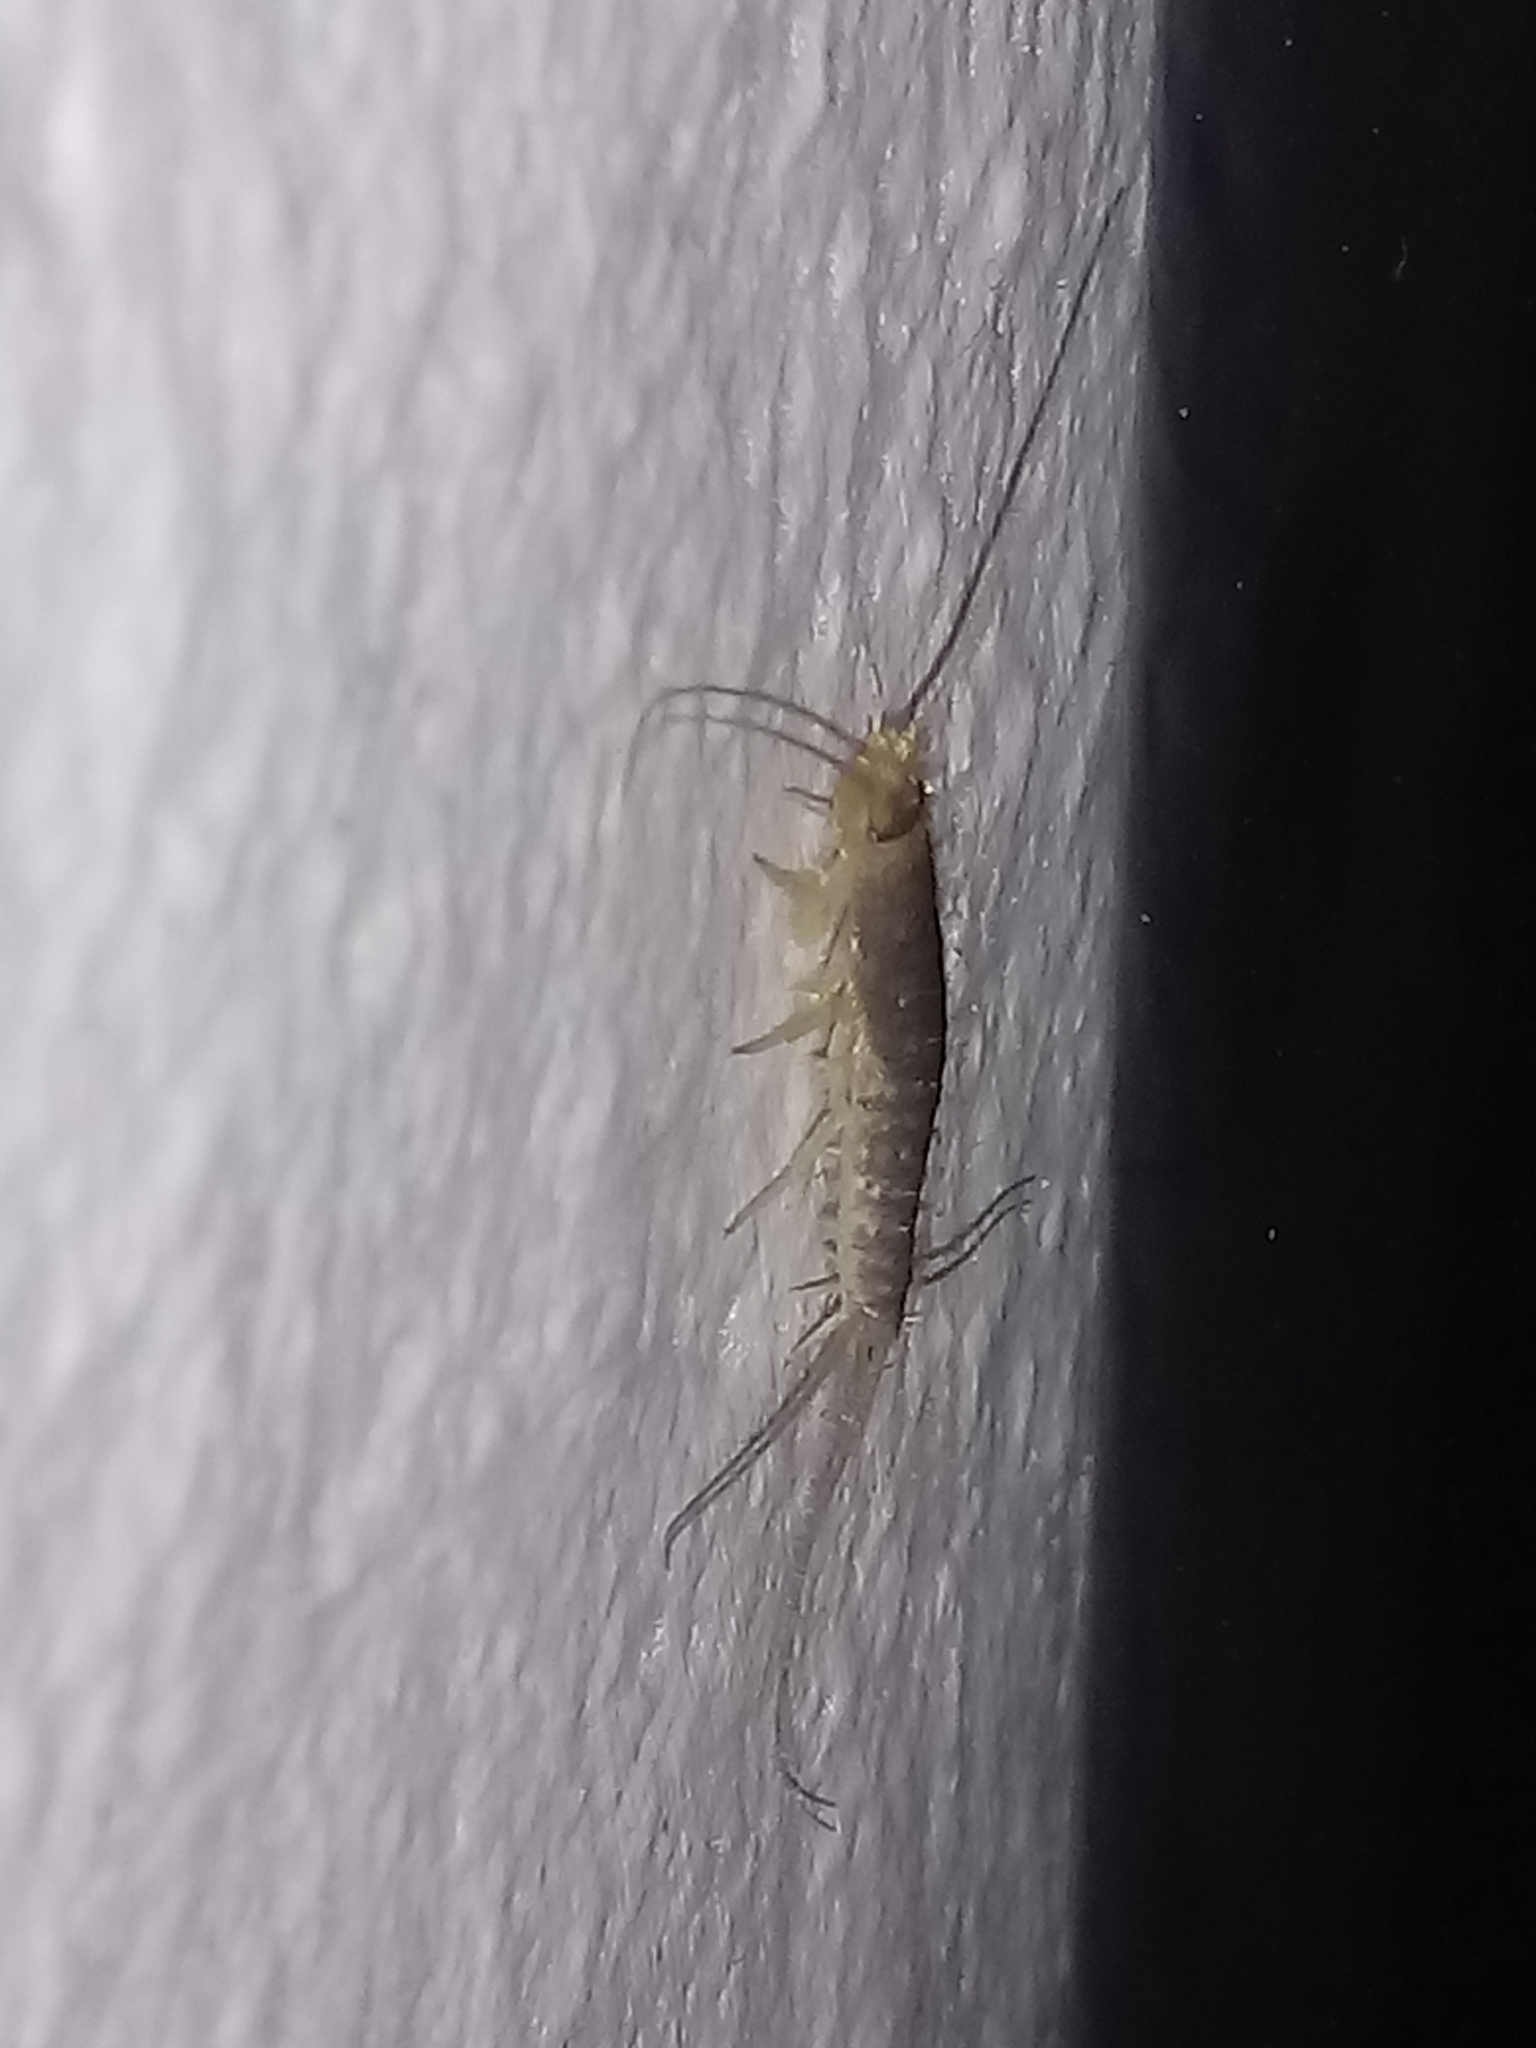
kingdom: Animalia
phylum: Arthropoda
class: Insecta
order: Zygentoma
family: Lepismatidae
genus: Ctenolepisma
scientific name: Ctenolepisma longicaudatum
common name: Silverfish
